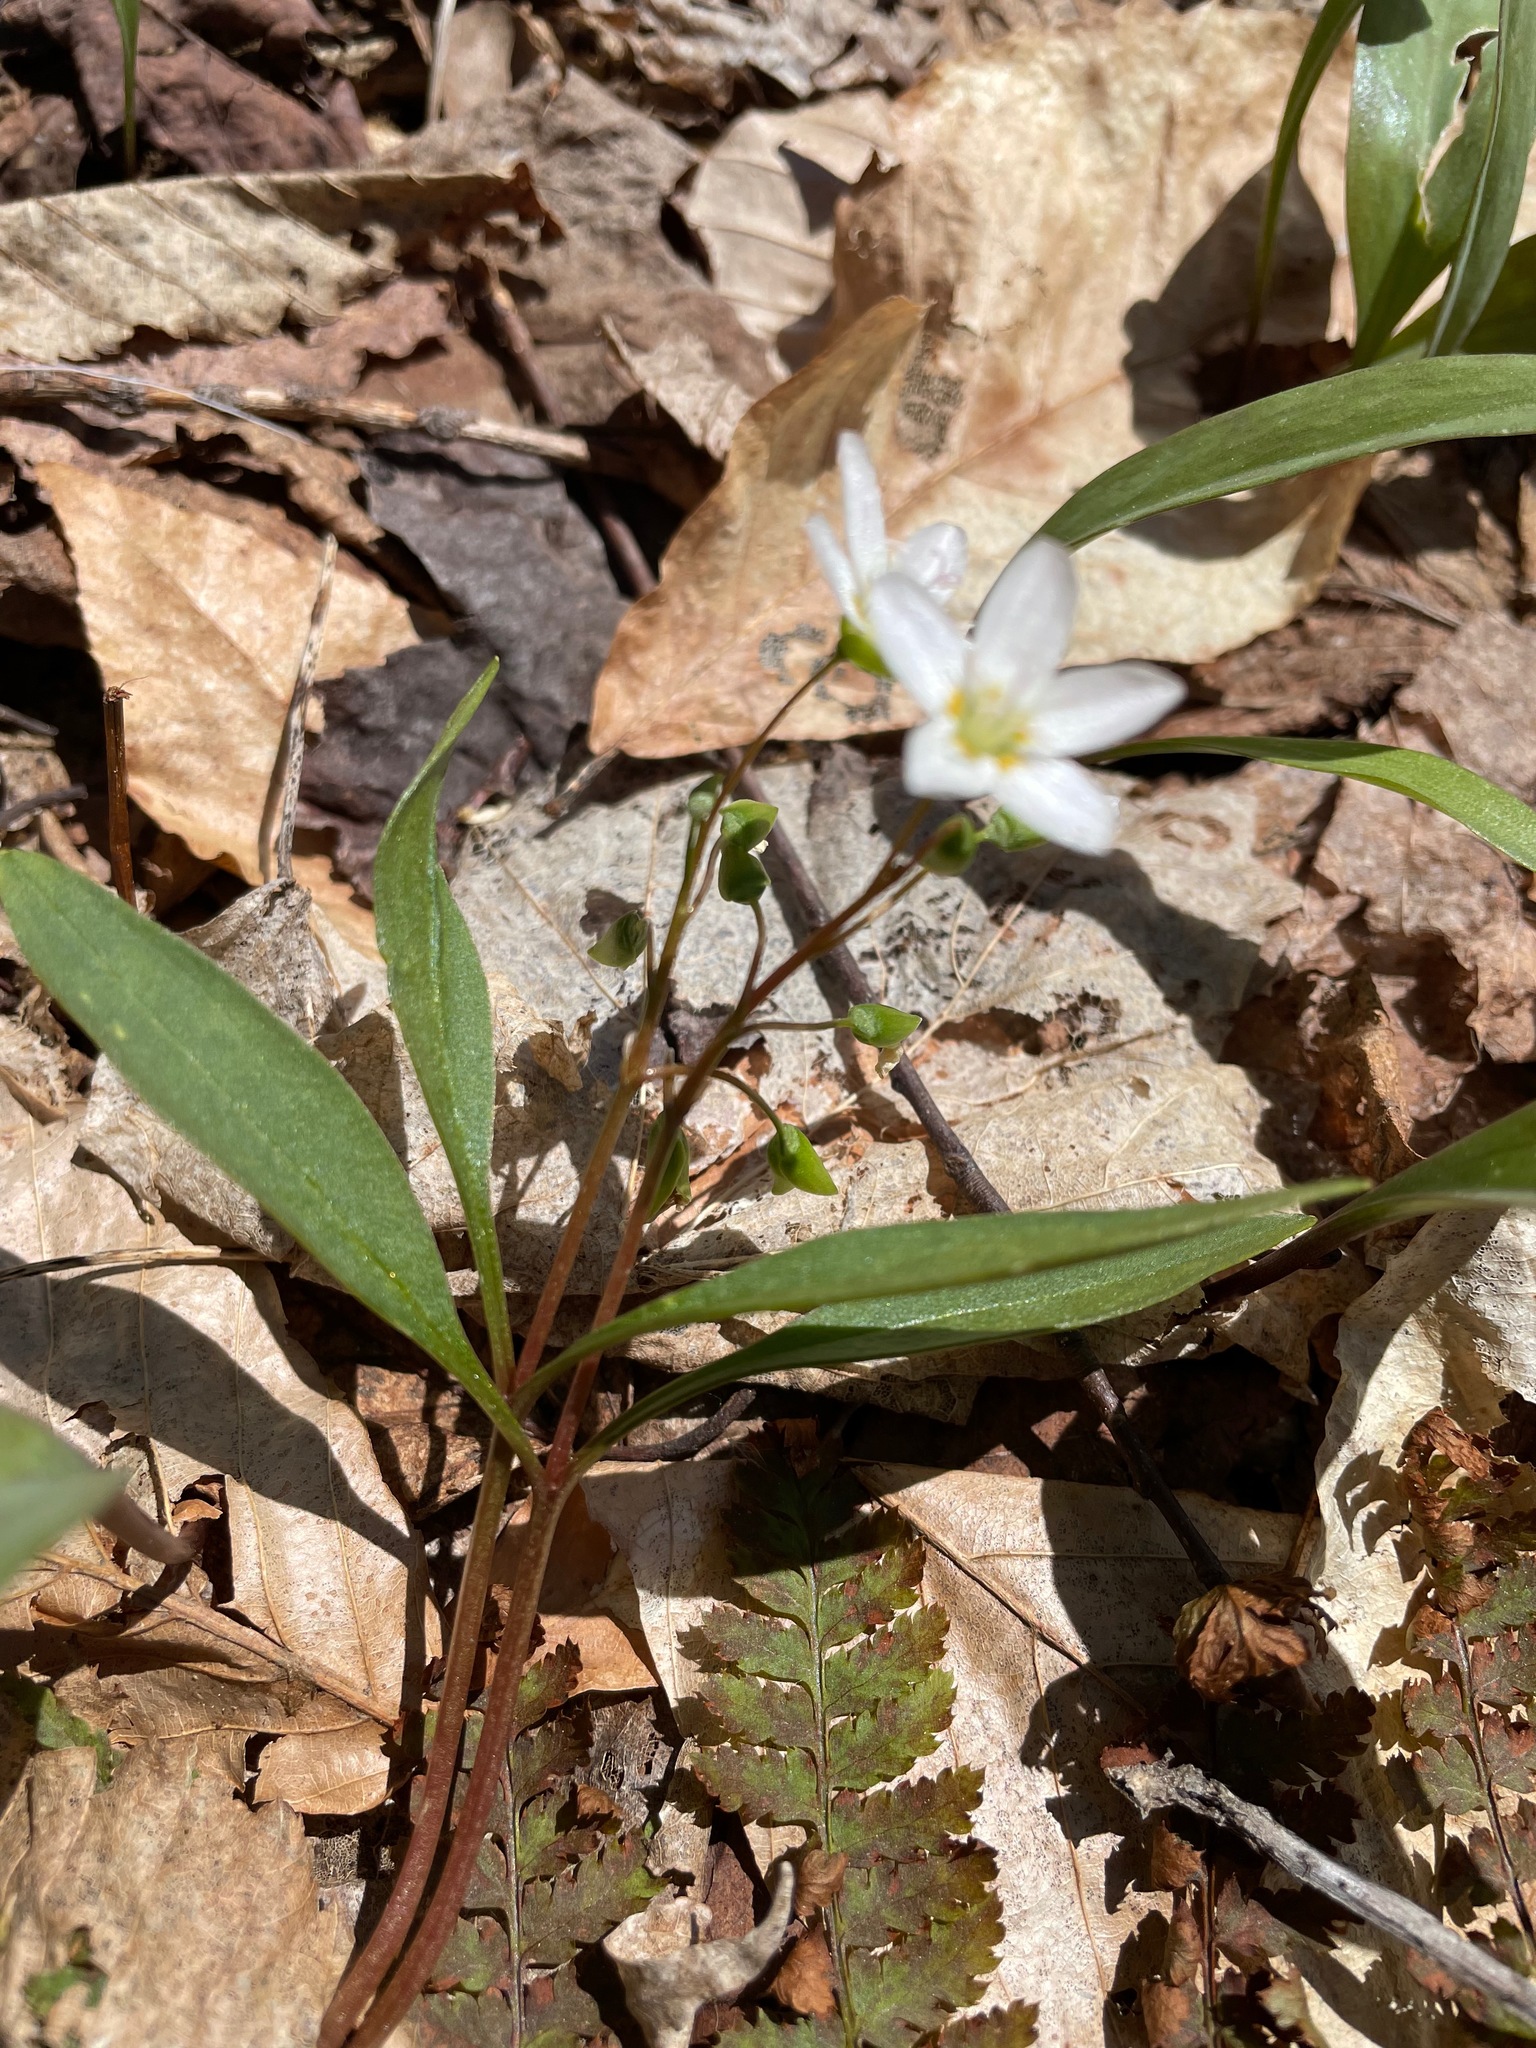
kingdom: Plantae
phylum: Tracheophyta
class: Magnoliopsida
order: Caryophyllales
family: Montiaceae
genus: Claytonia
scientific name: Claytonia caroliniana
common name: Carolina spring beauty
